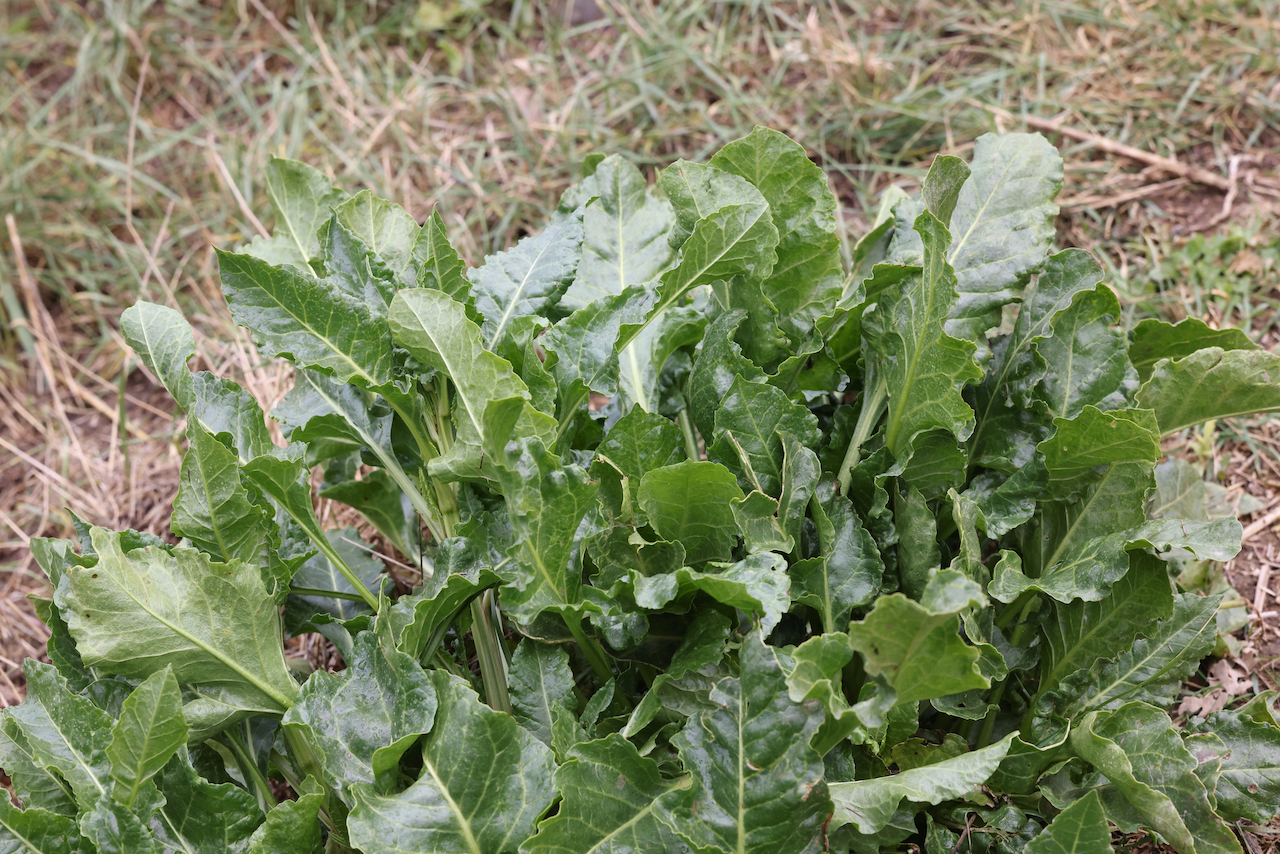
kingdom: Plantae
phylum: Tracheophyta
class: Magnoliopsida
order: Caryophyllales
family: Amaranthaceae
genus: Beta
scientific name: Beta vulgaris
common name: Beet
